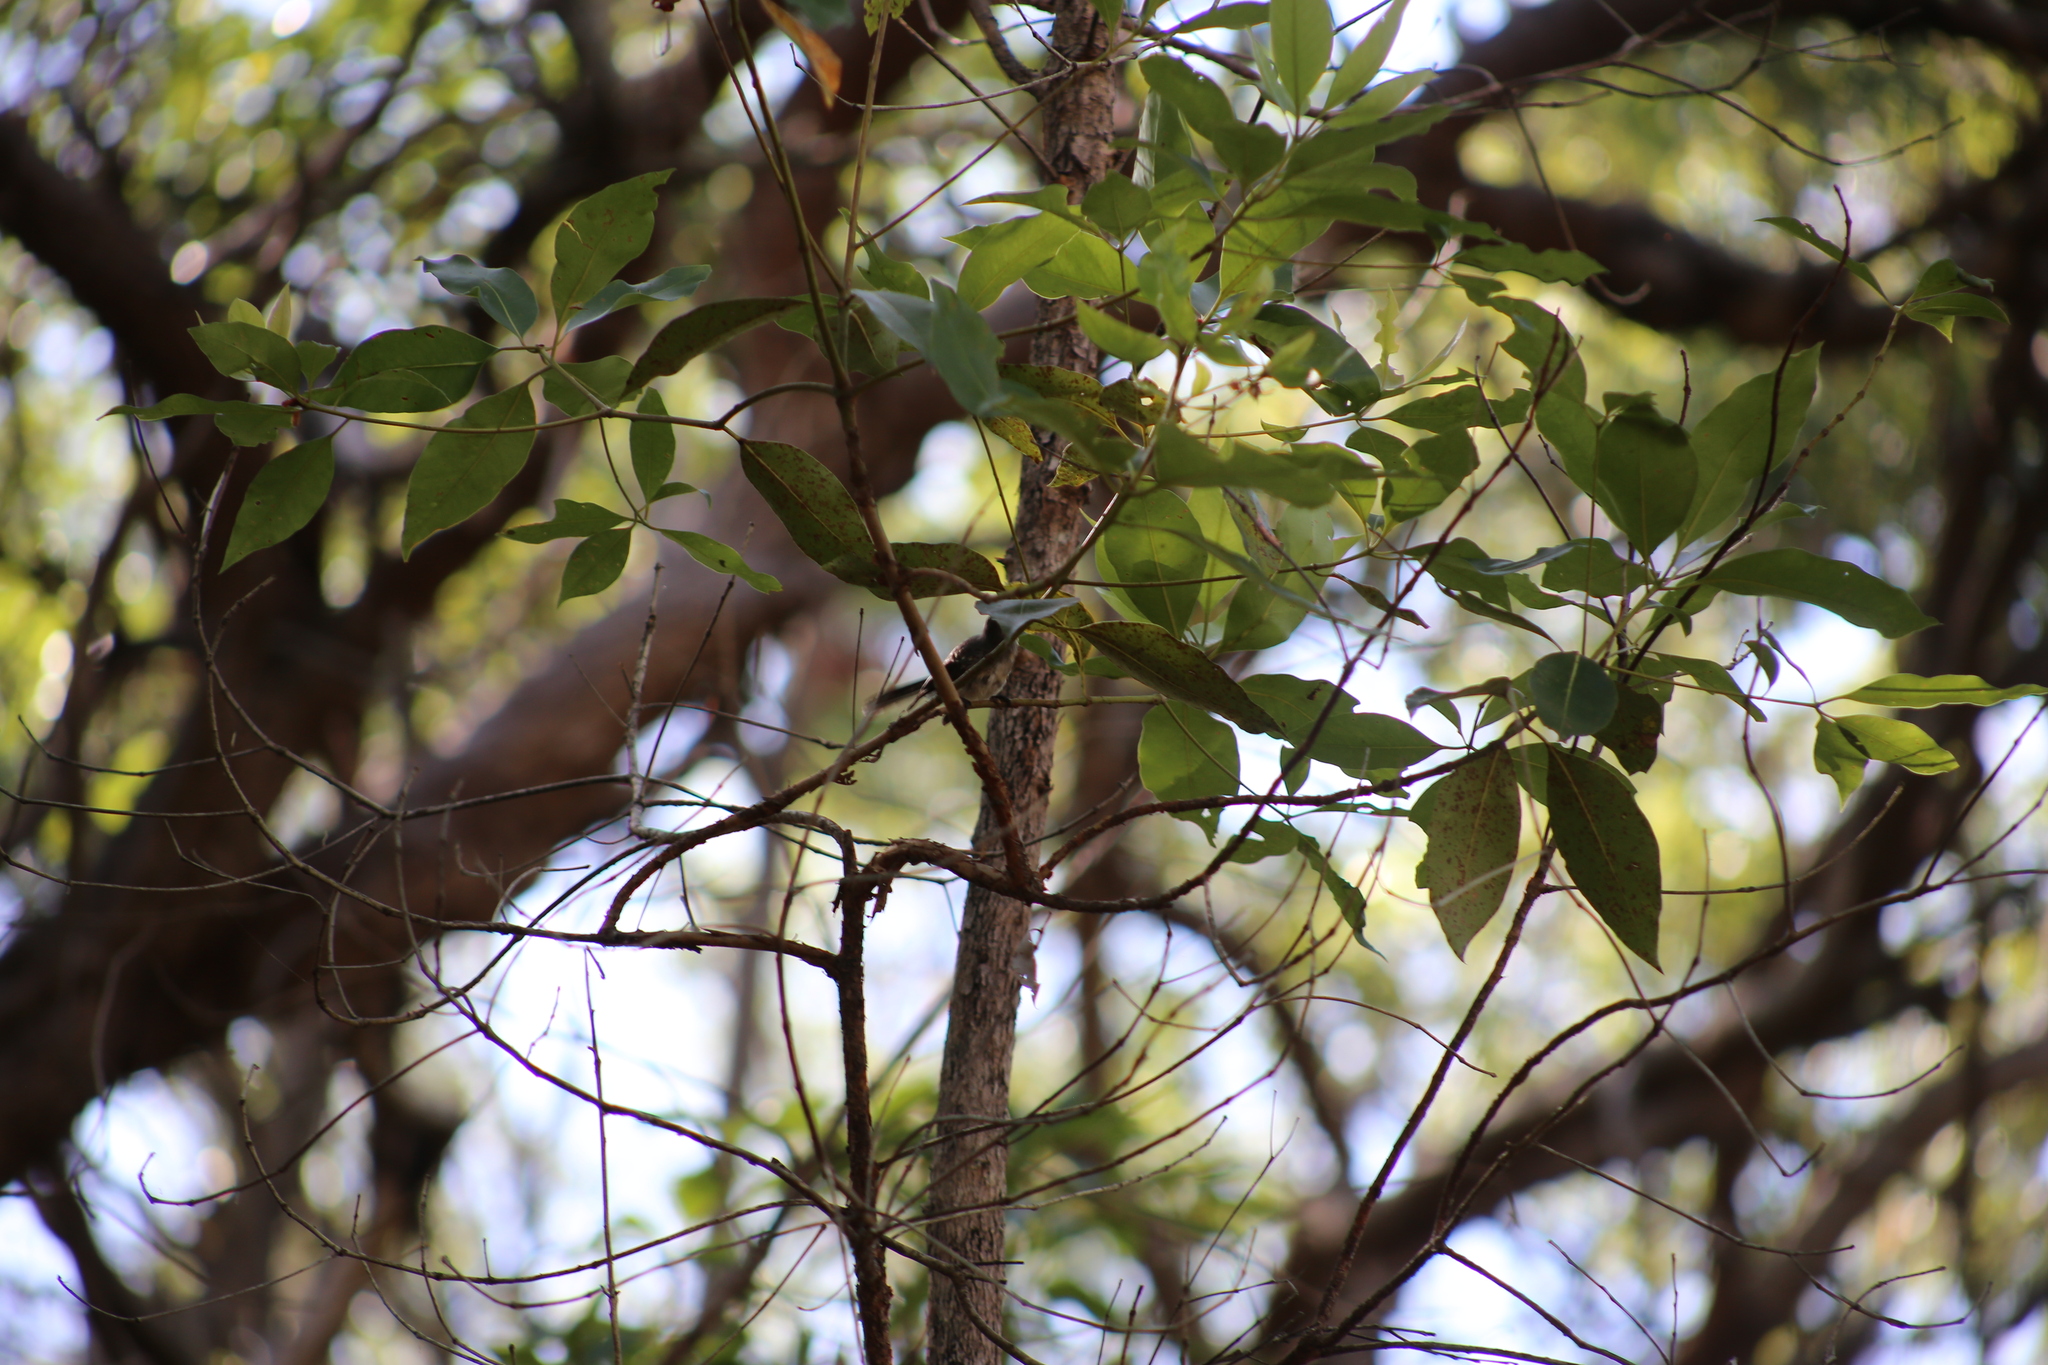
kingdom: Animalia
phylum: Chordata
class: Aves
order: Passeriformes
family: Rhipiduridae
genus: Rhipidura
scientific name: Rhipidura albiscapa
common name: Grey fantail
